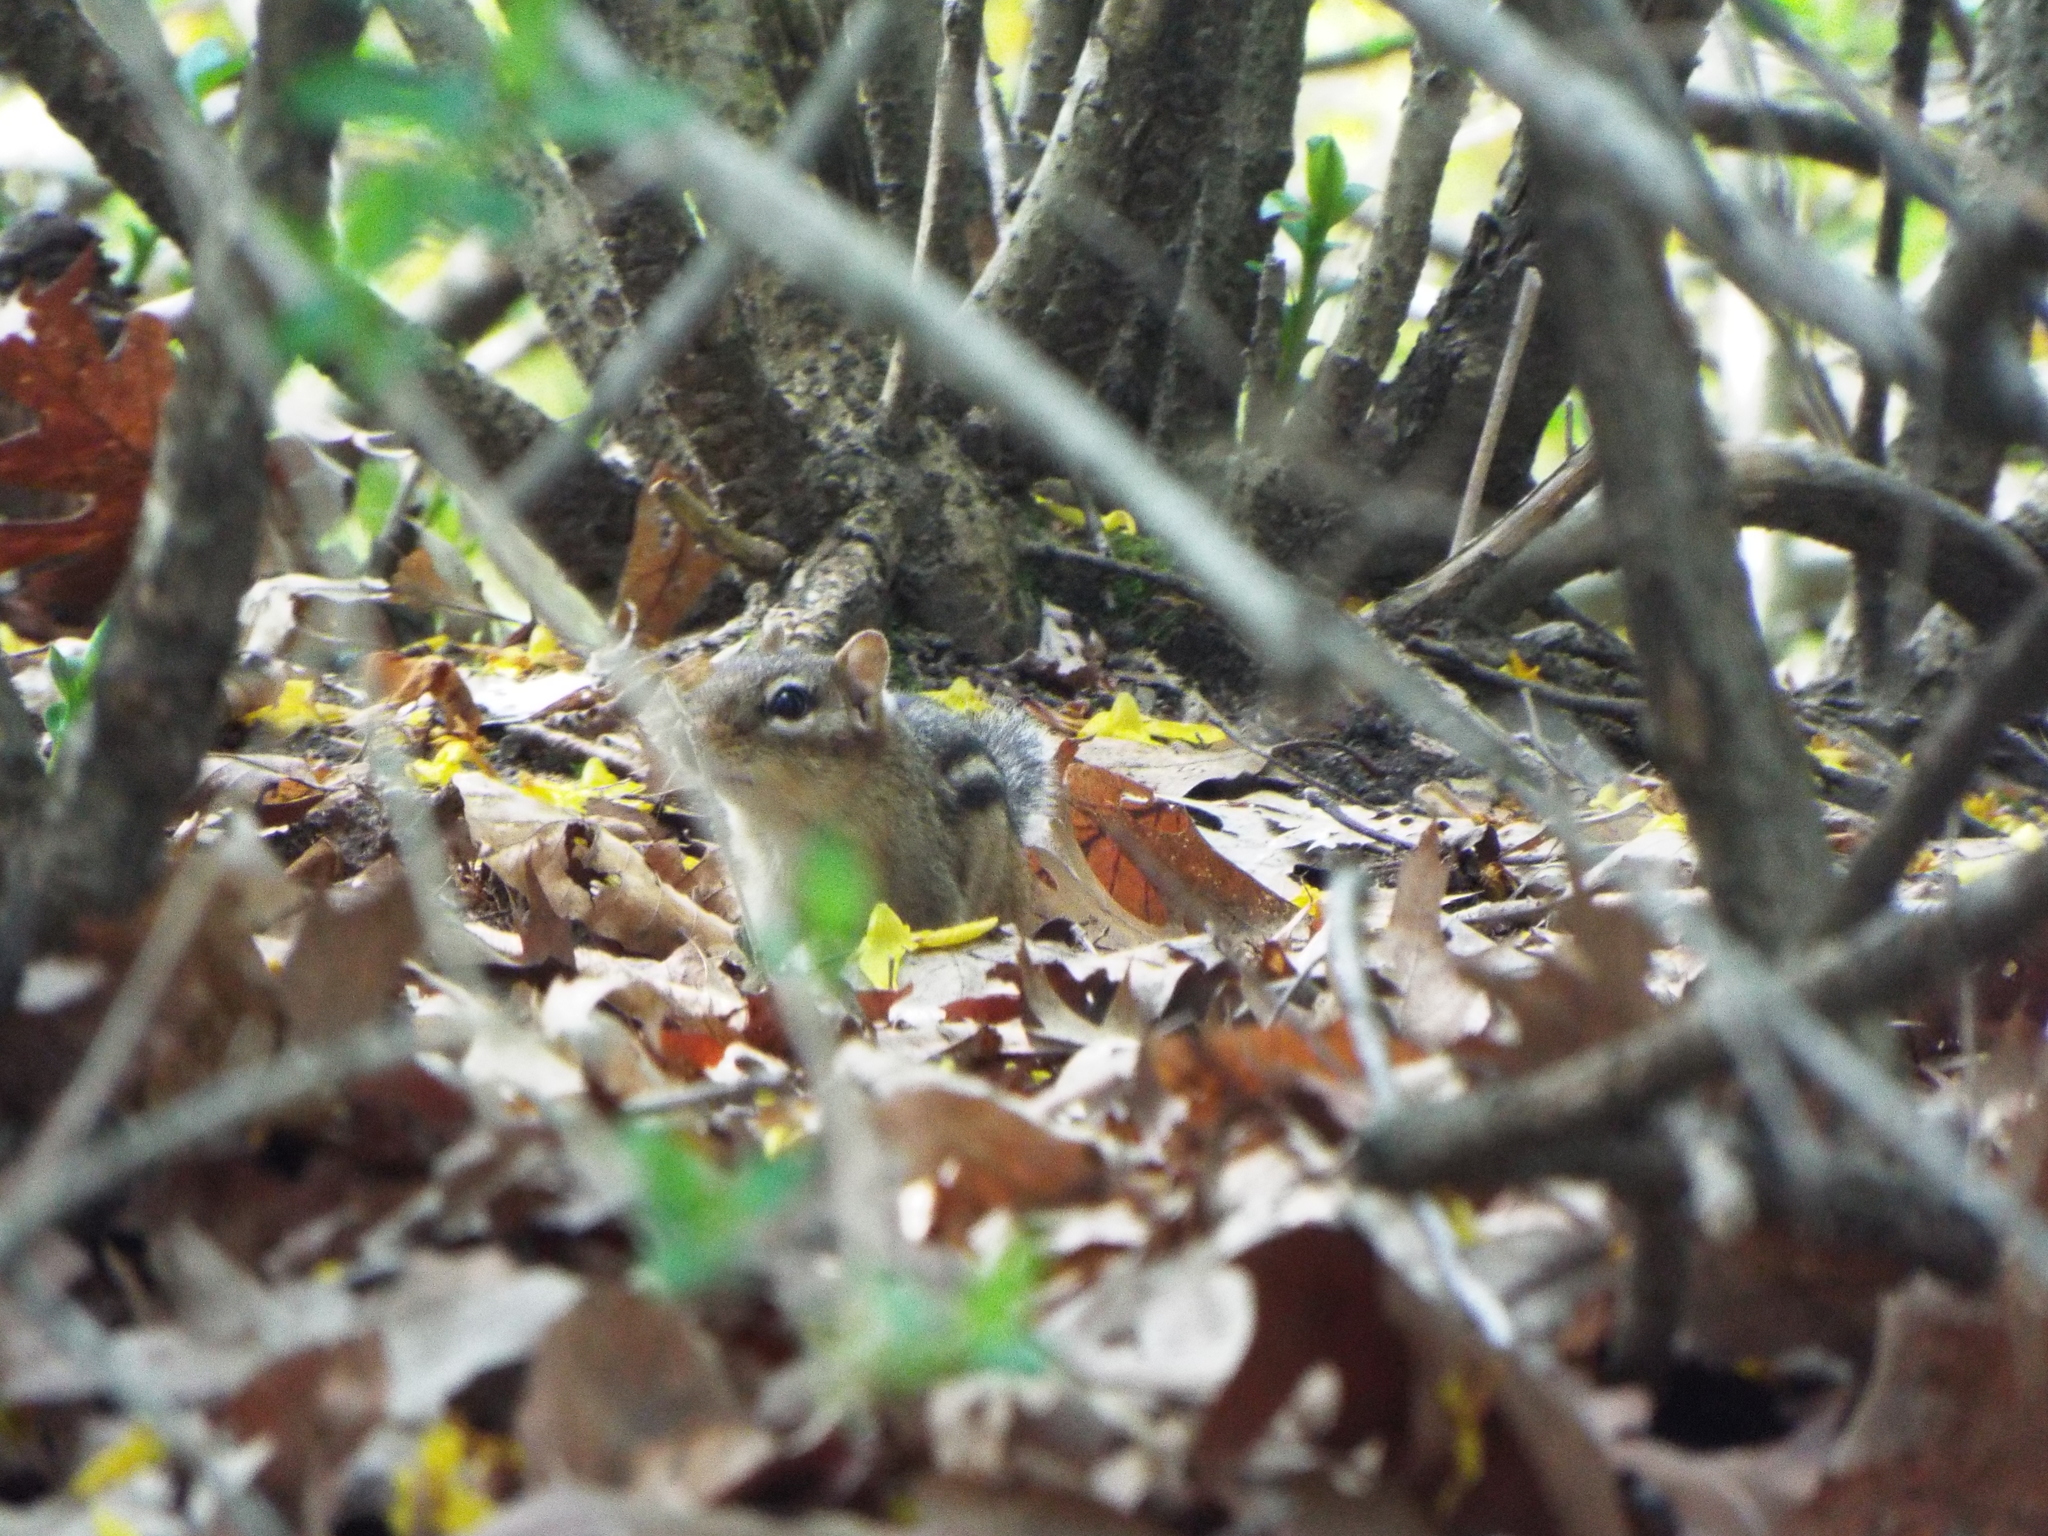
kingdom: Animalia
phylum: Chordata
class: Mammalia
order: Rodentia
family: Sciuridae
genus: Tamias
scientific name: Tamias striatus
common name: Eastern chipmunk
